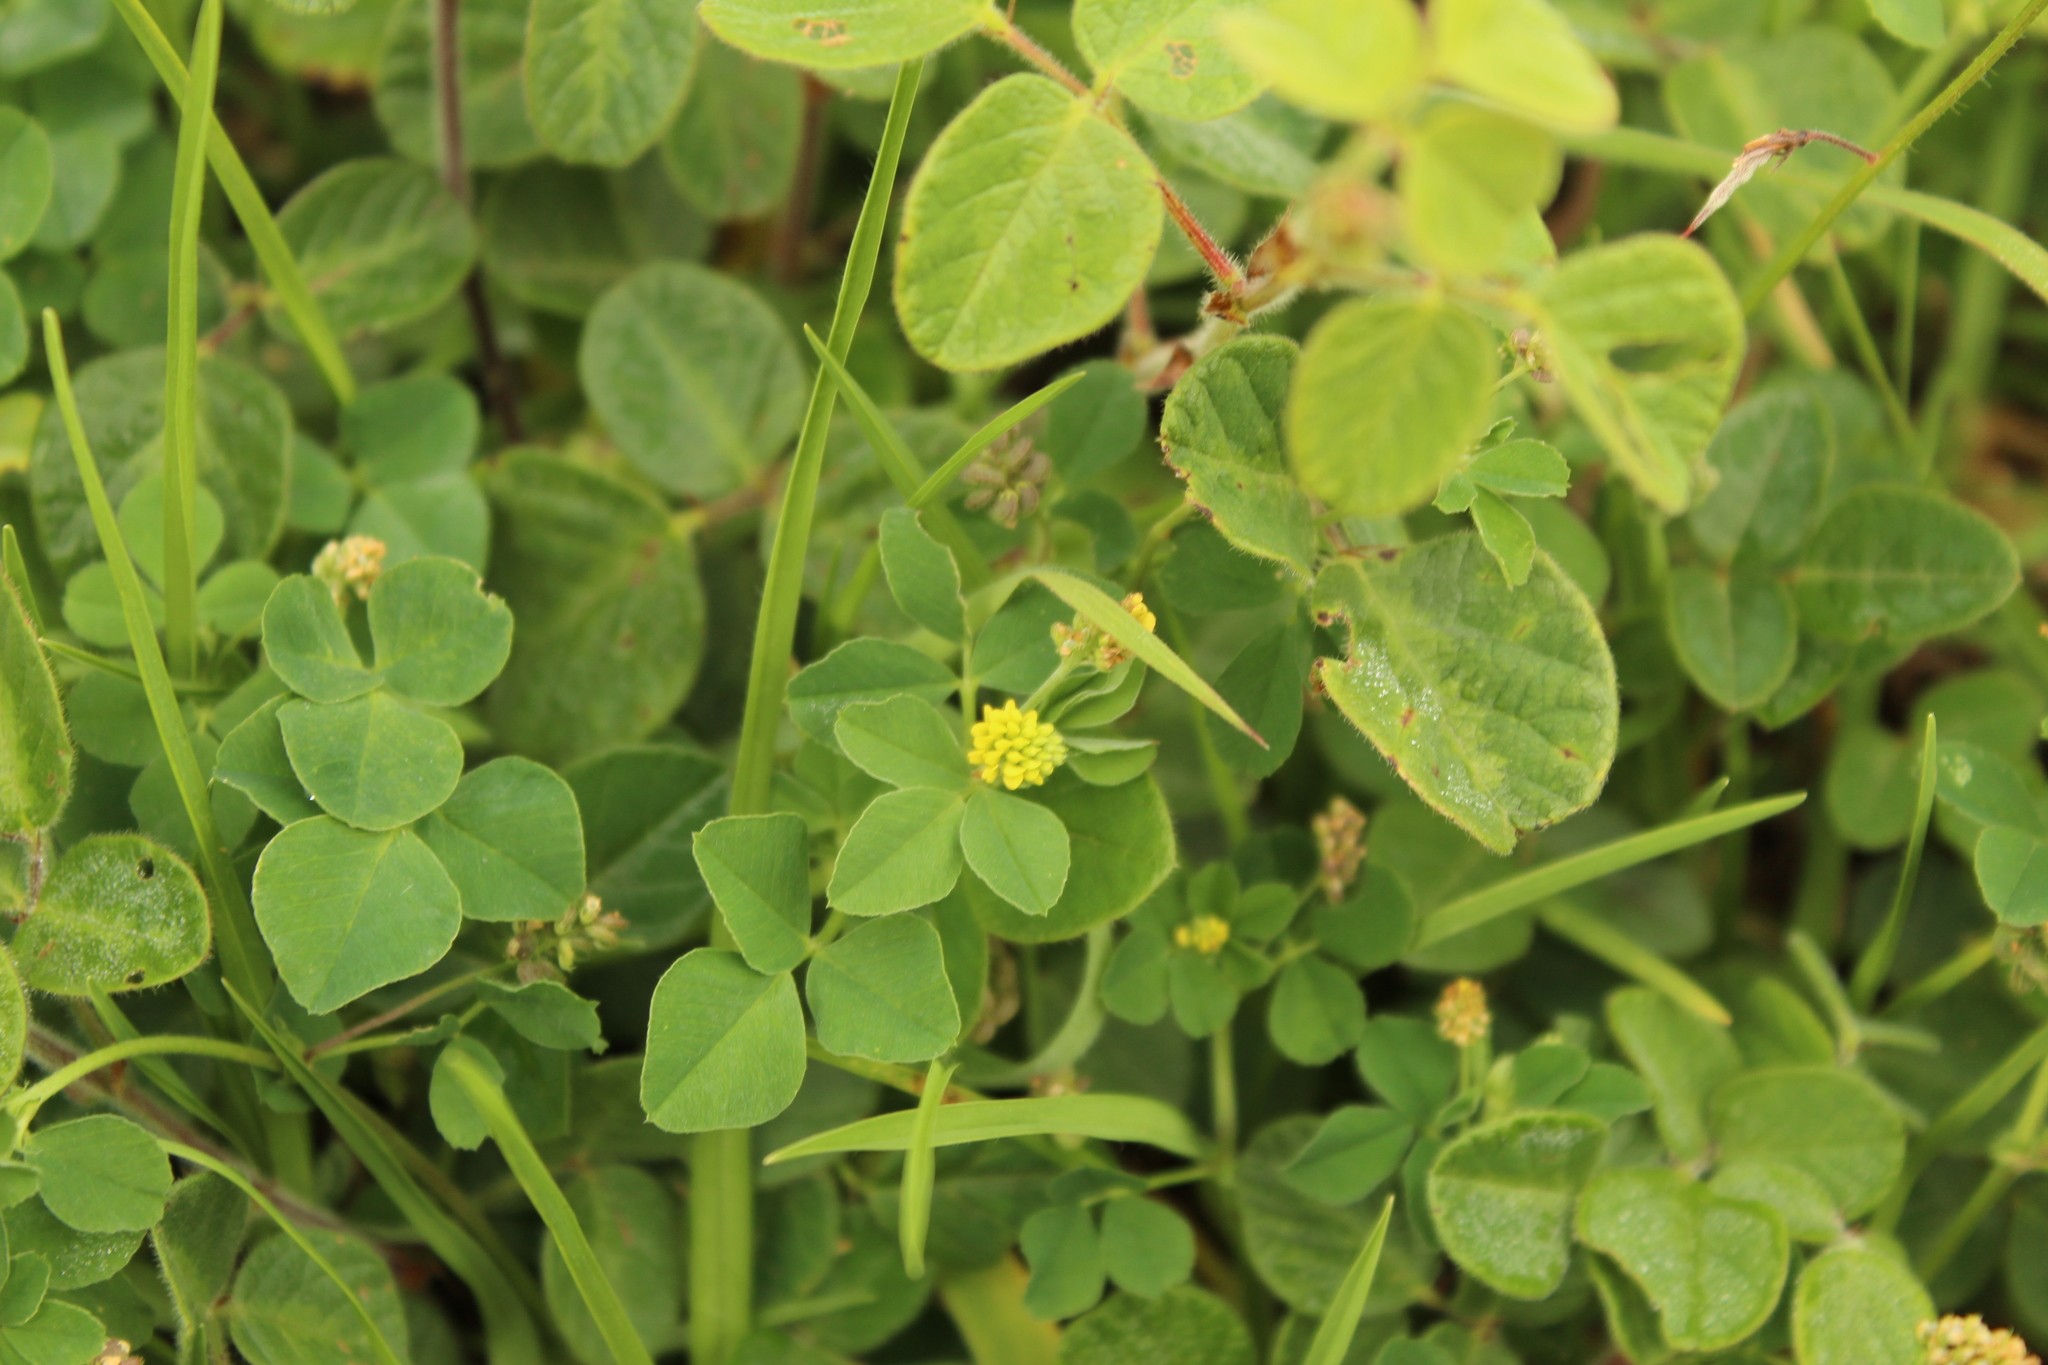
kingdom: Plantae
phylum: Tracheophyta
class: Magnoliopsida
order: Fabales
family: Fabaceae
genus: Medicago
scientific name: Medicago lupulina
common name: Black medick
